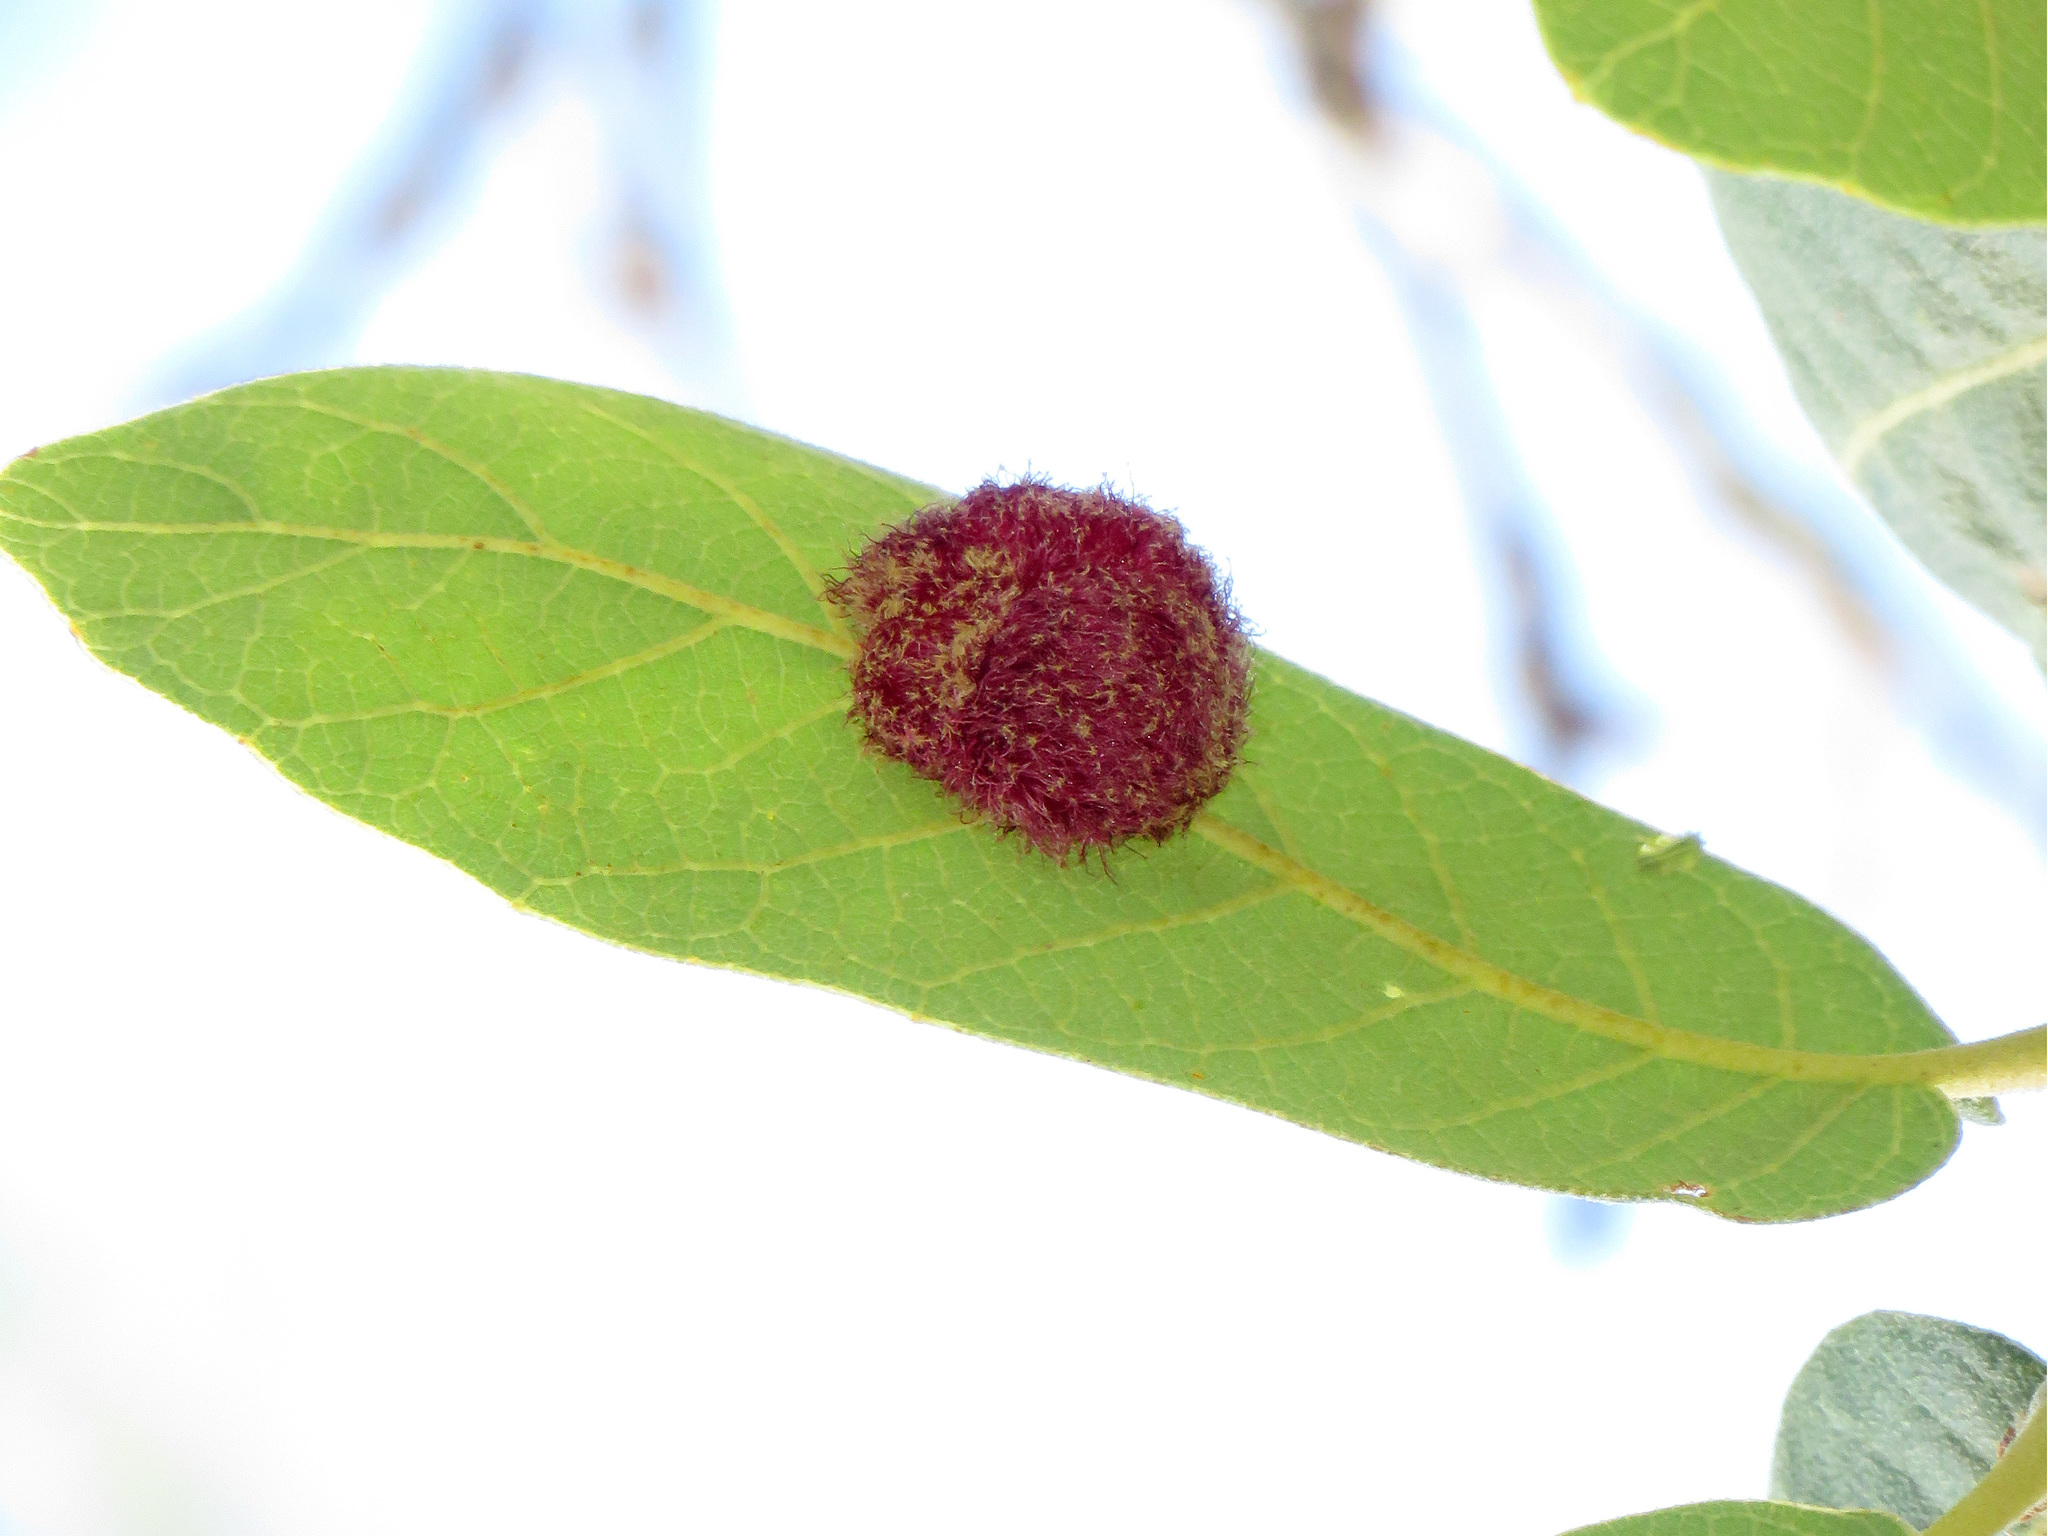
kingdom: Animalia
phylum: Arthropoda
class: Insecta
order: Hymenoptera
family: Cynipidae
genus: Cynips
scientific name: Cynips
